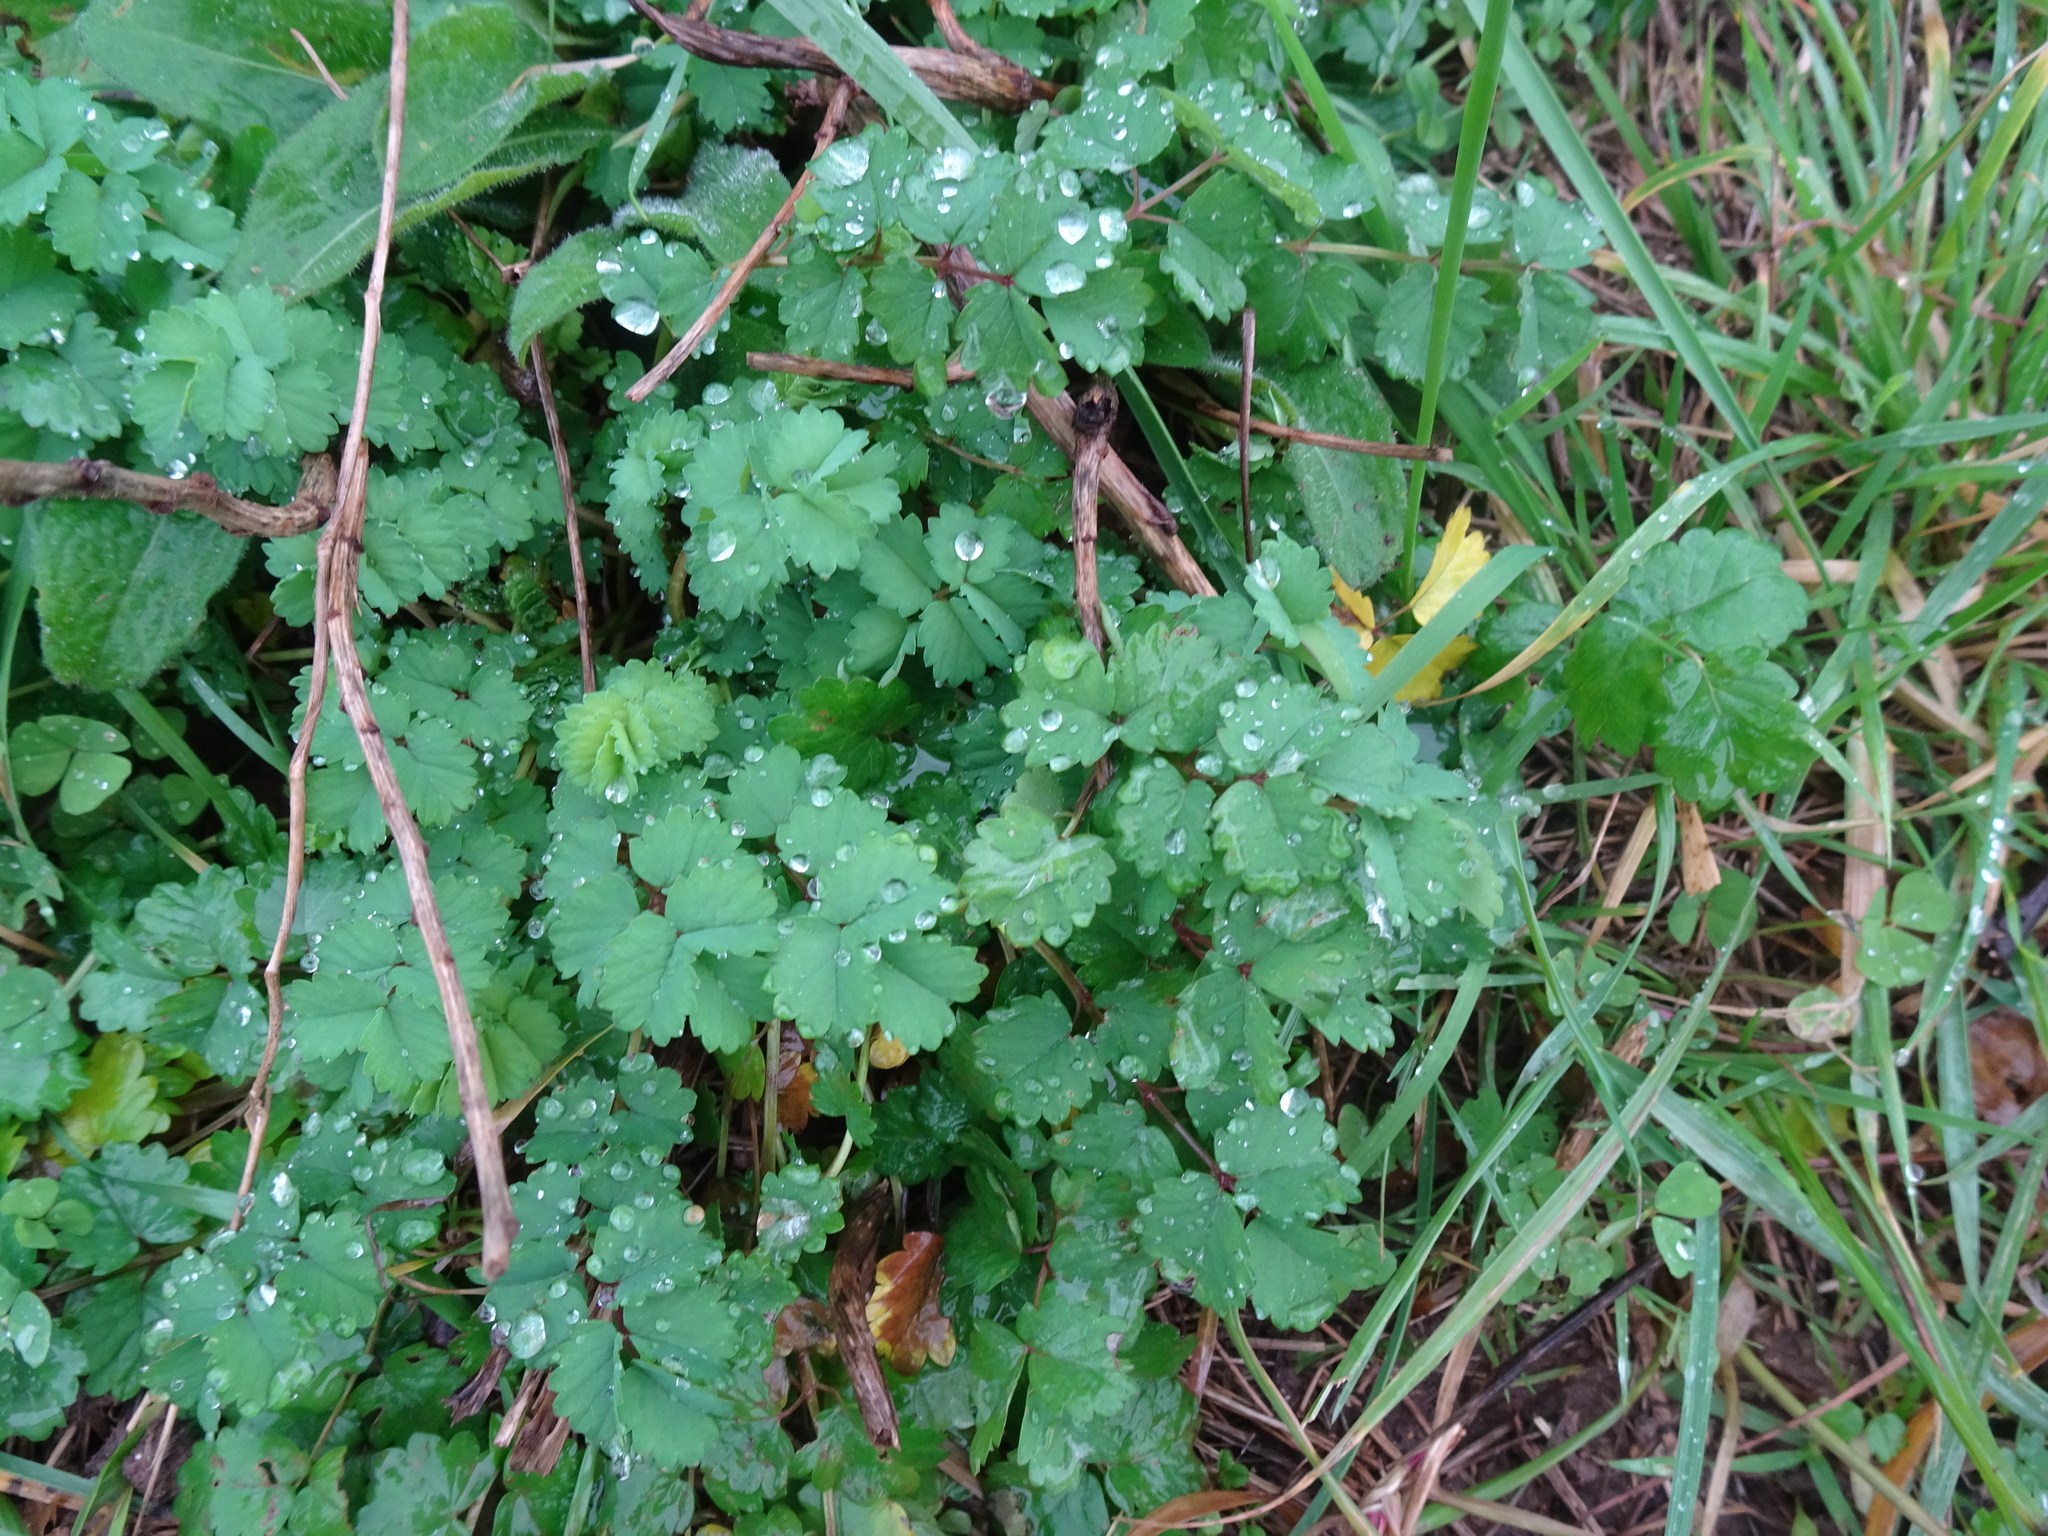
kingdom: Plantae
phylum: Tracheophyta
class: Magnoliopsida
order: Rosales
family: Rosaceae
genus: Poterium
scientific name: Poterium sanguisorba
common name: Salad burnet
